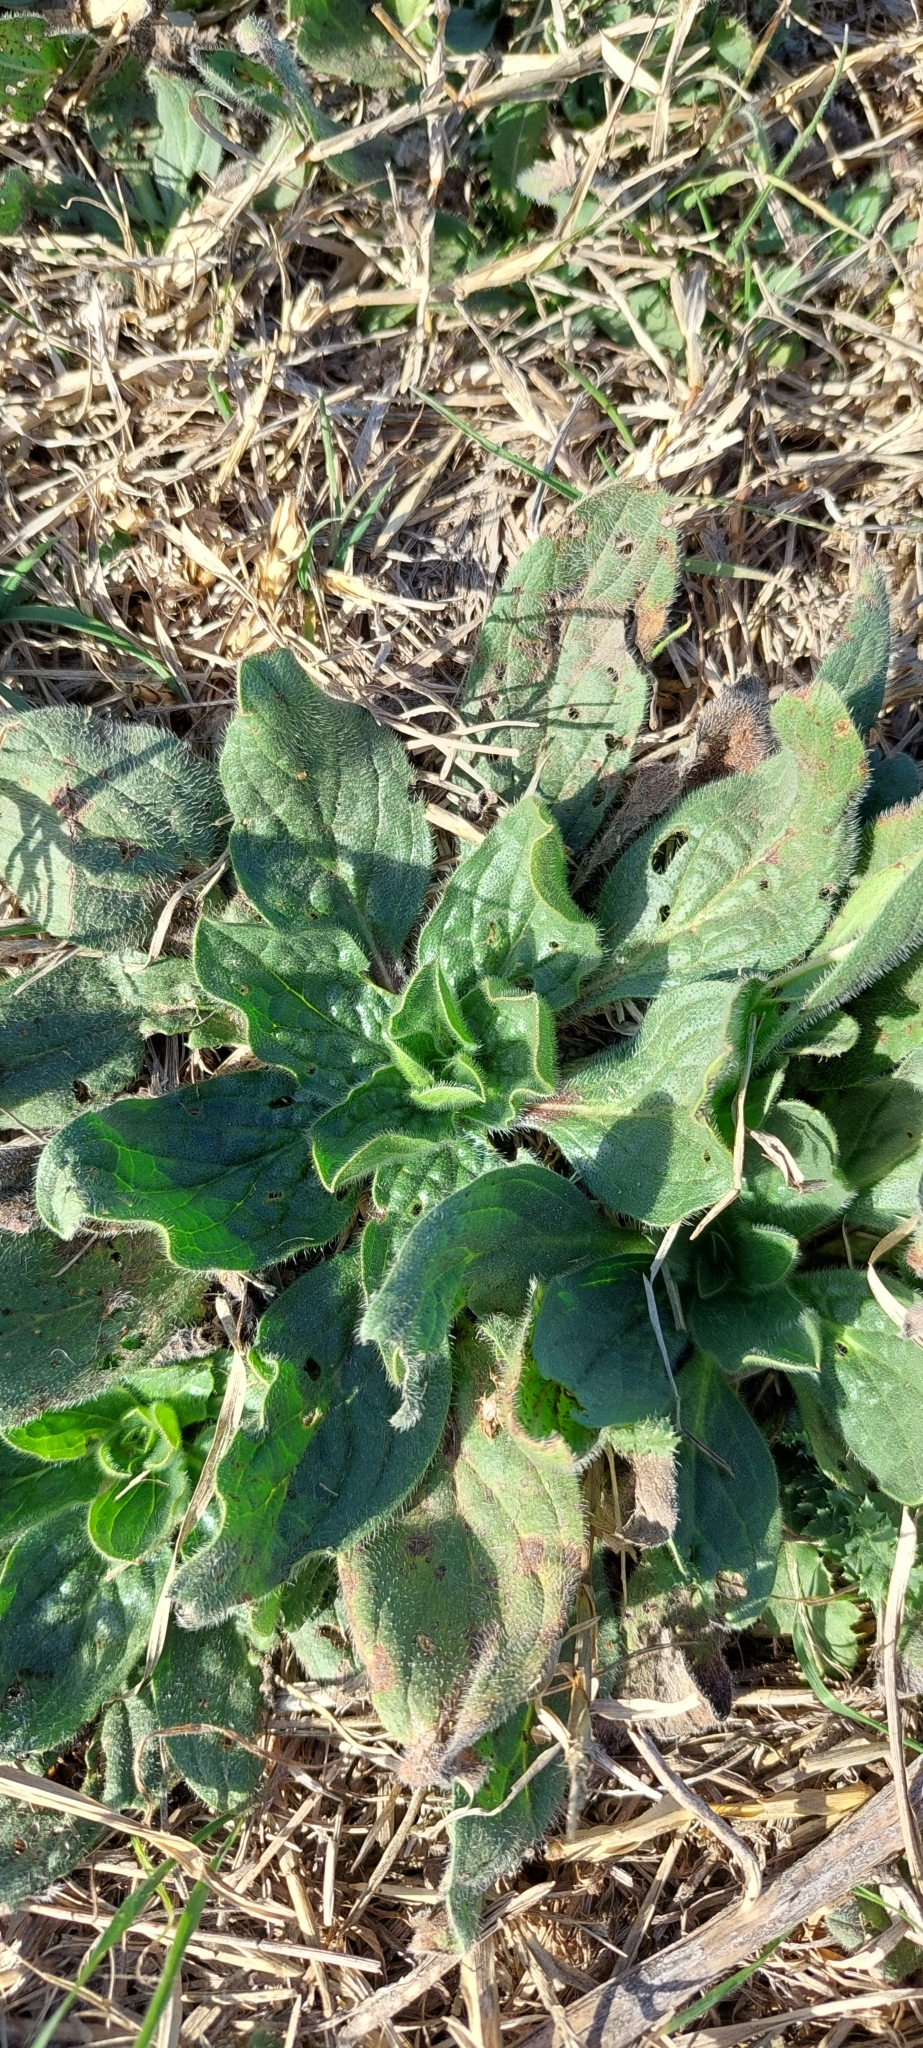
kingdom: Plantae
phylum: Tracheophyta
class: Magnoliopsida
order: Lamiales
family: Scrophulariaceae
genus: Verbascum
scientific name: Verbascum thapsus
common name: Common mullein
